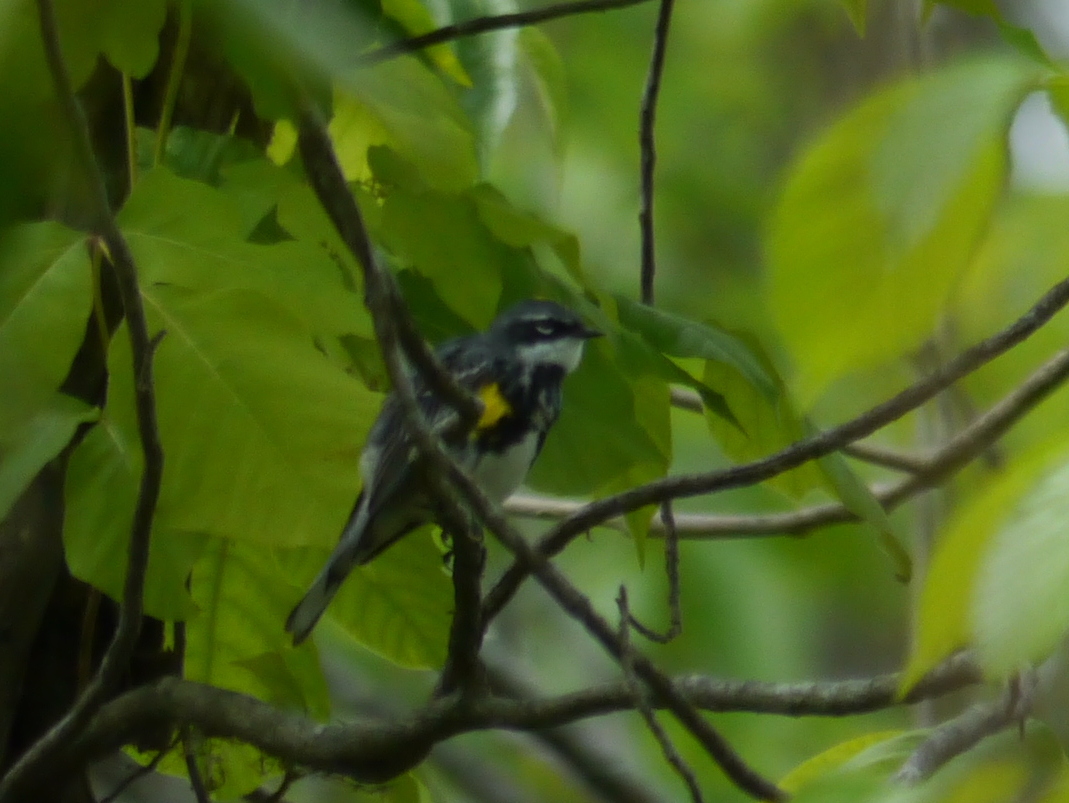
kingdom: Animalia
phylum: Chordata
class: Aves
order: Passeriformes
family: Parulidae
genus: Setophaga
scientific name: Setophaga coronata
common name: Myrtle warbler
